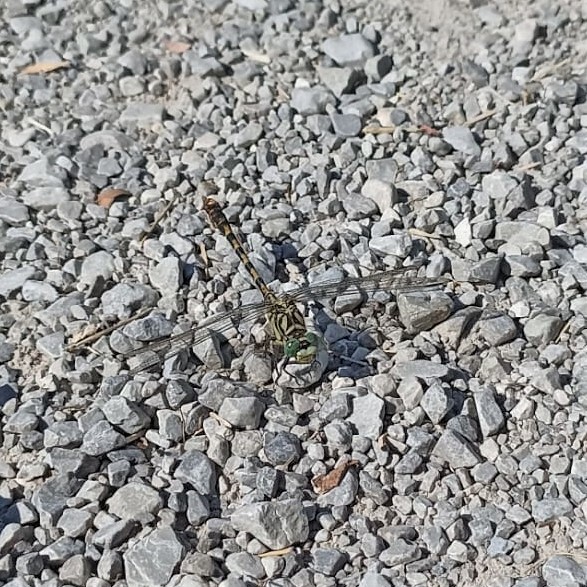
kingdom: Animalia
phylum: Arthropoda
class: Insecta
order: Odonata
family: Gomphidae
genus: Onychogomphus
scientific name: Onychogomphus forcipatus
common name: Small pincertail
